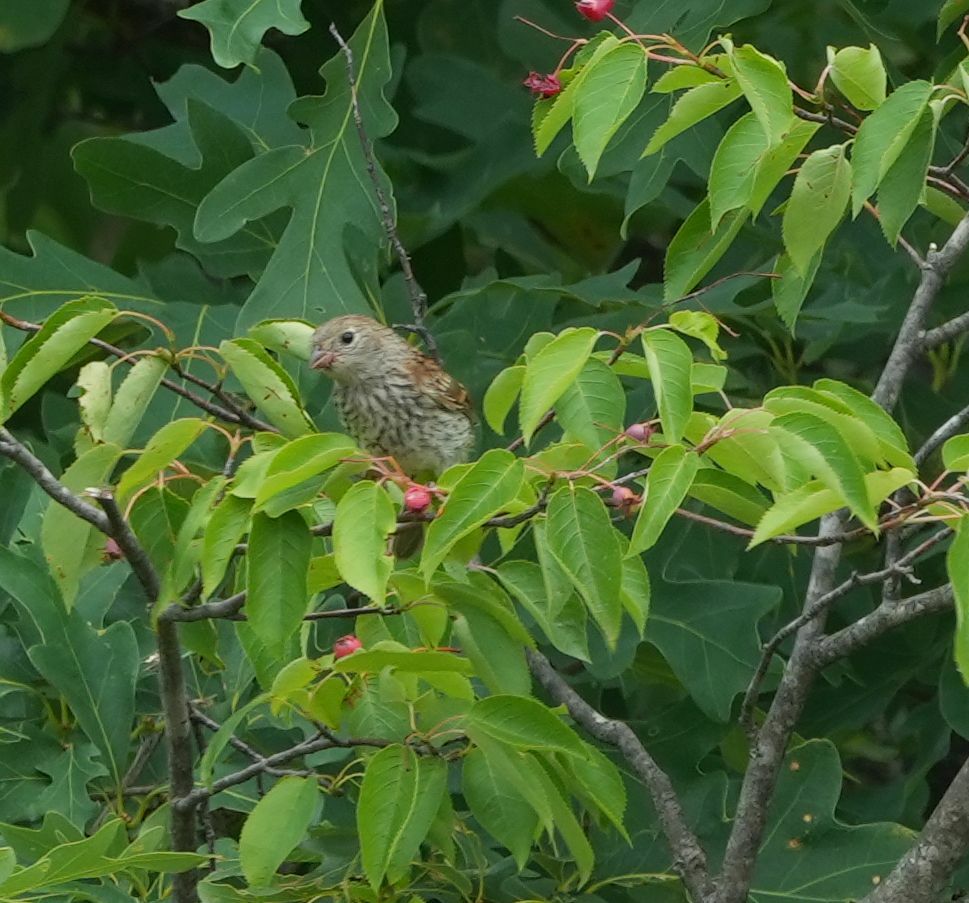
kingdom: Animalia
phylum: Chordata
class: Aves
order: Passeriformes
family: Passerellidae
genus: Spizella
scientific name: Spizella pusilla
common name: Field sparrow
